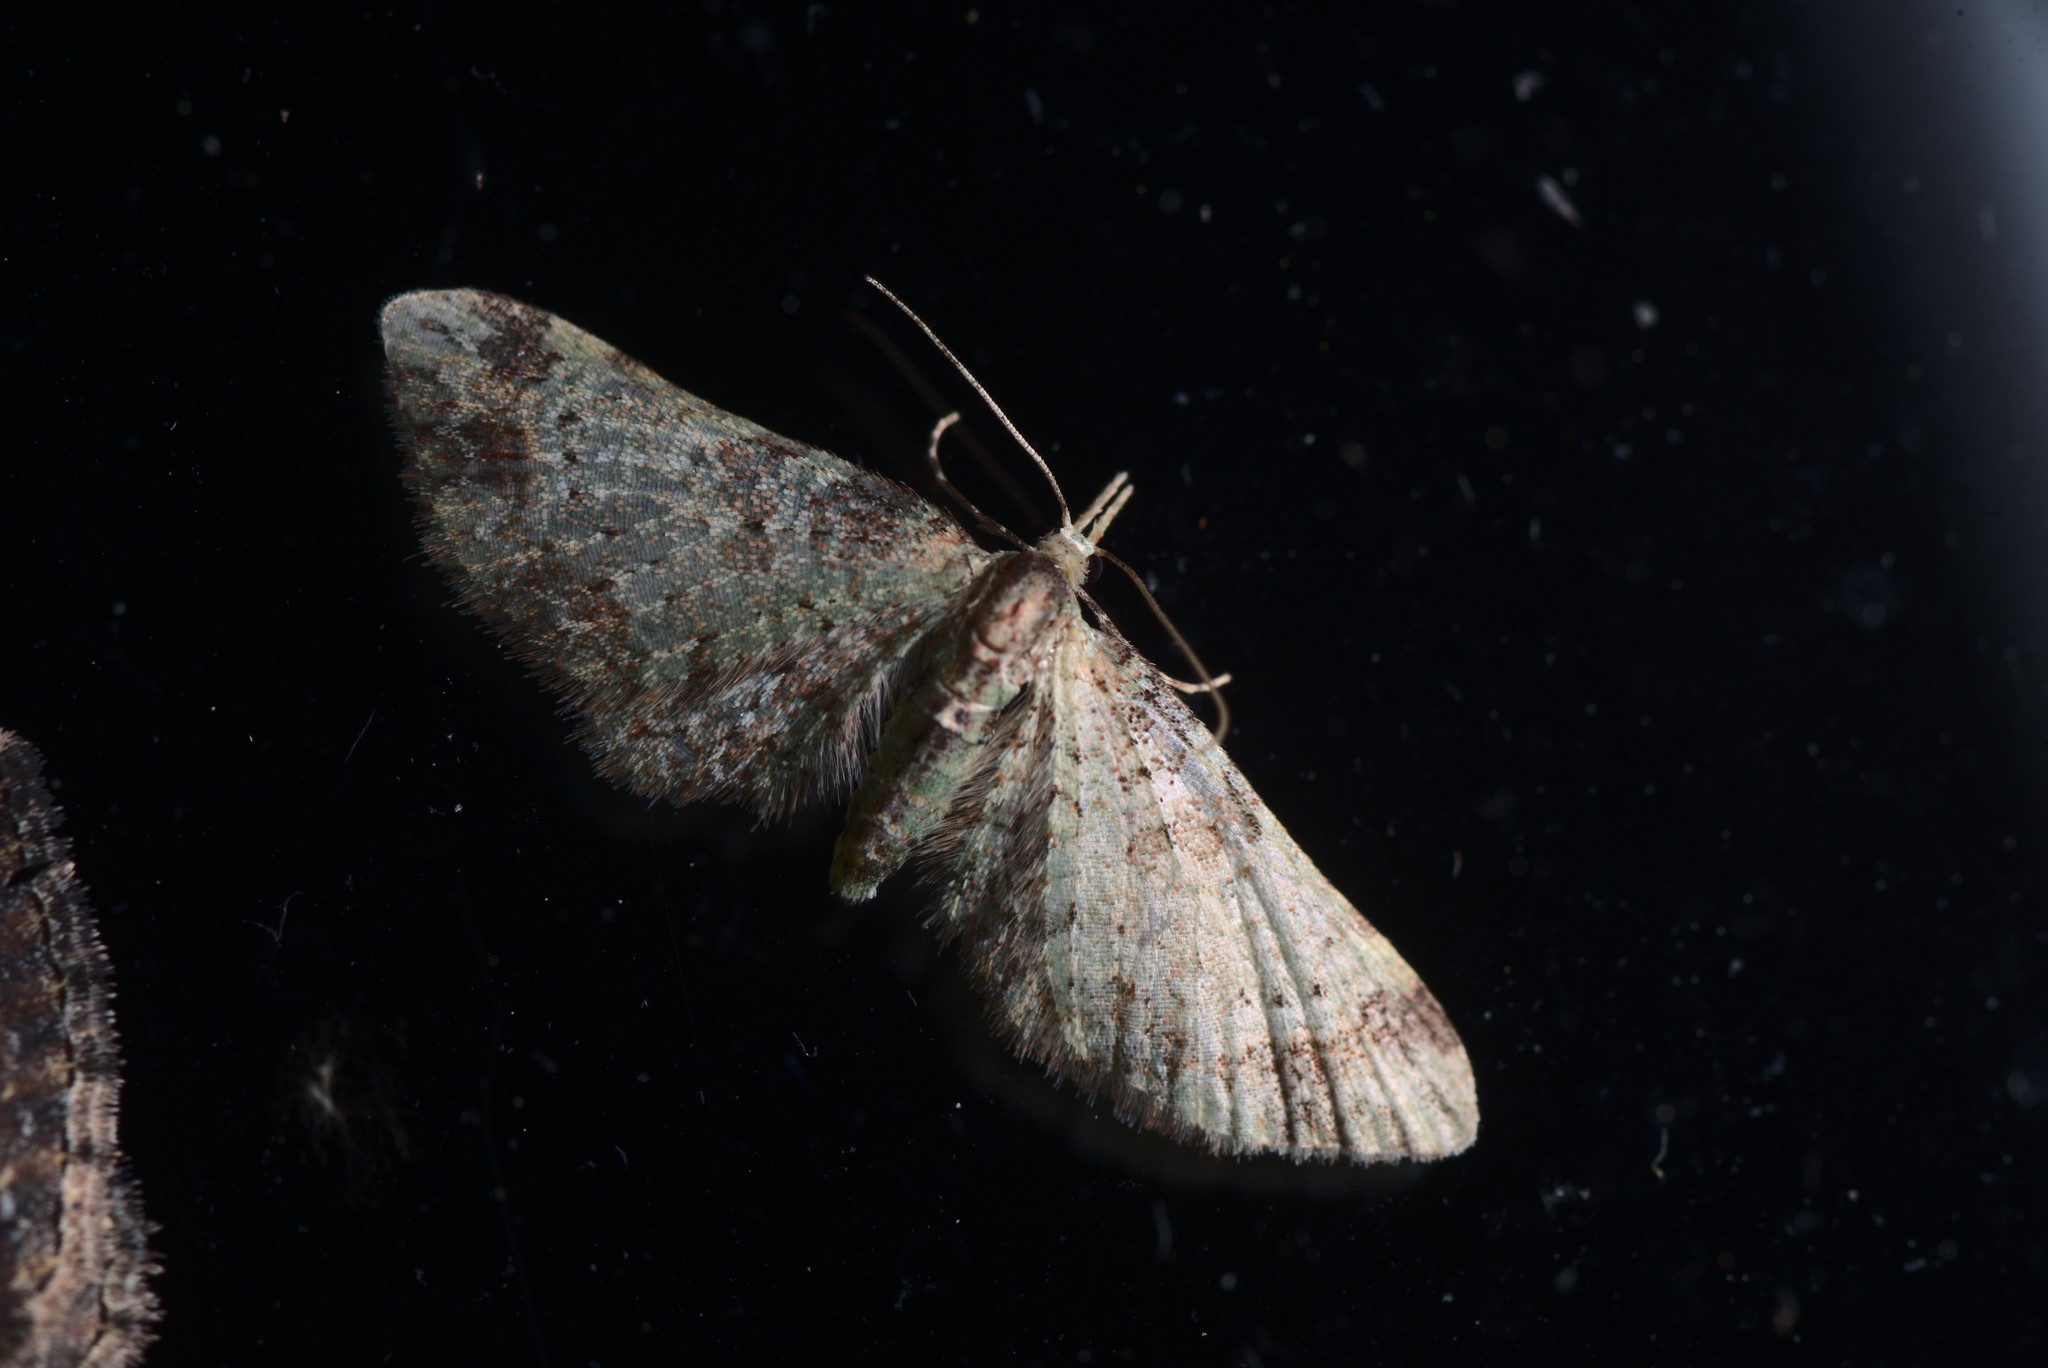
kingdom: Animalia
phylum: Arthropoda
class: Insecta
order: Lepidoptera
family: Geometridae
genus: Pasiphila
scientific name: Pasiphila plinthina
